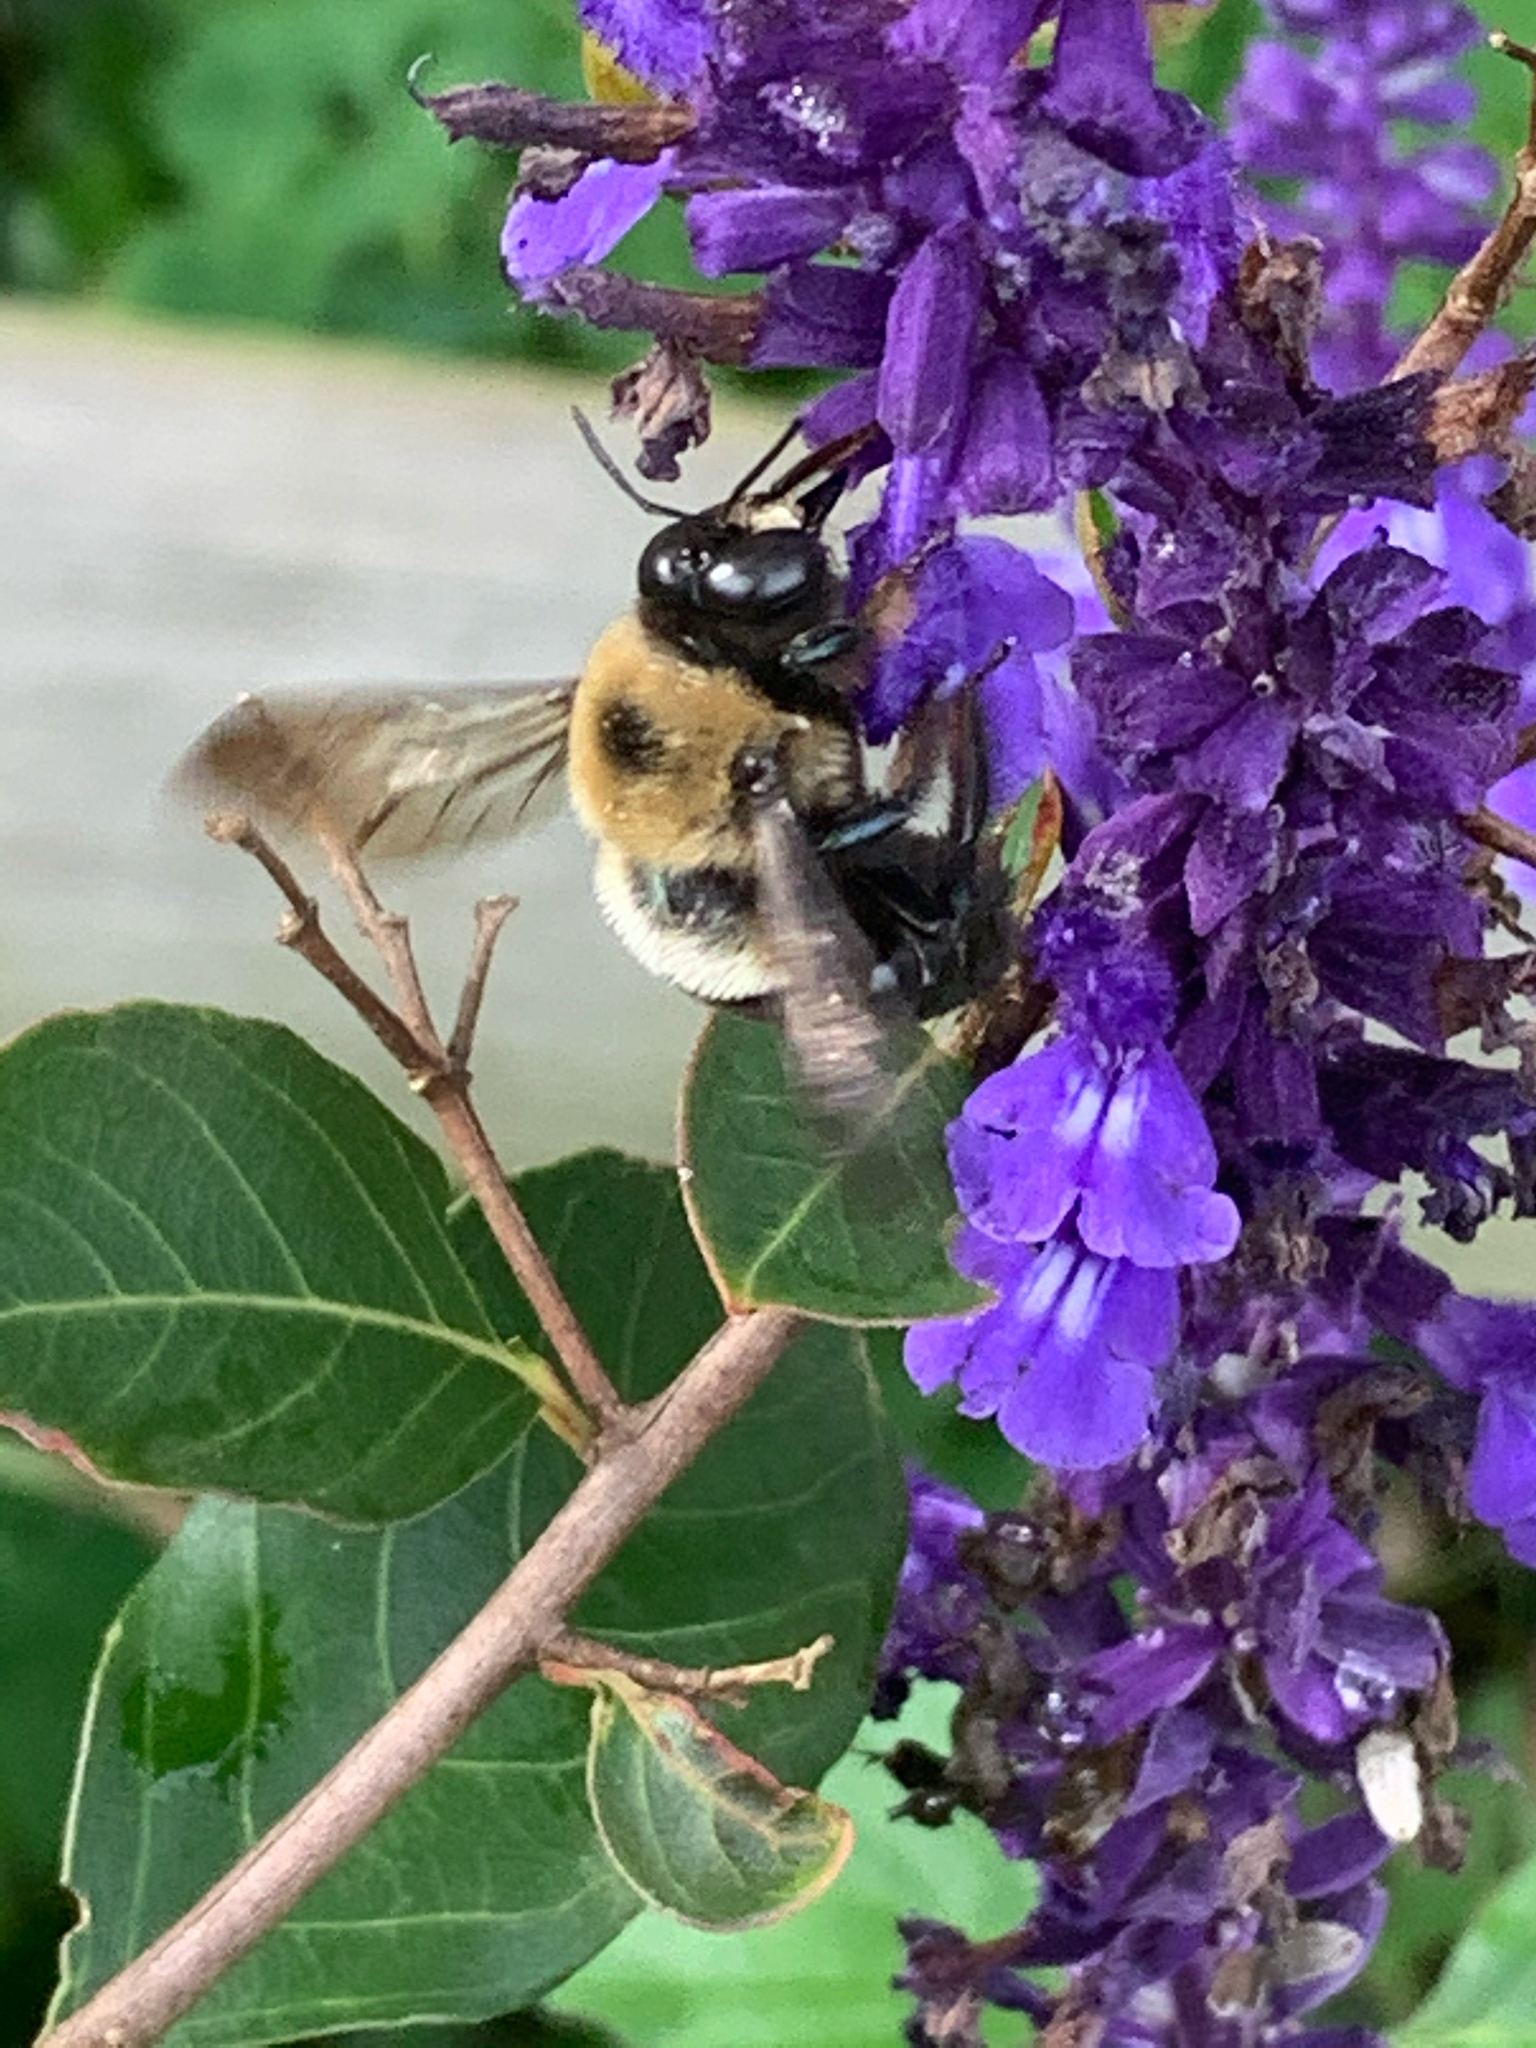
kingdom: Animalia
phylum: Arthropoda
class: Insecta
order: Hymenoptera
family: Apidae
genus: Xylocopa
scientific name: Xylocopa virginica
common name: Carpenter bee
